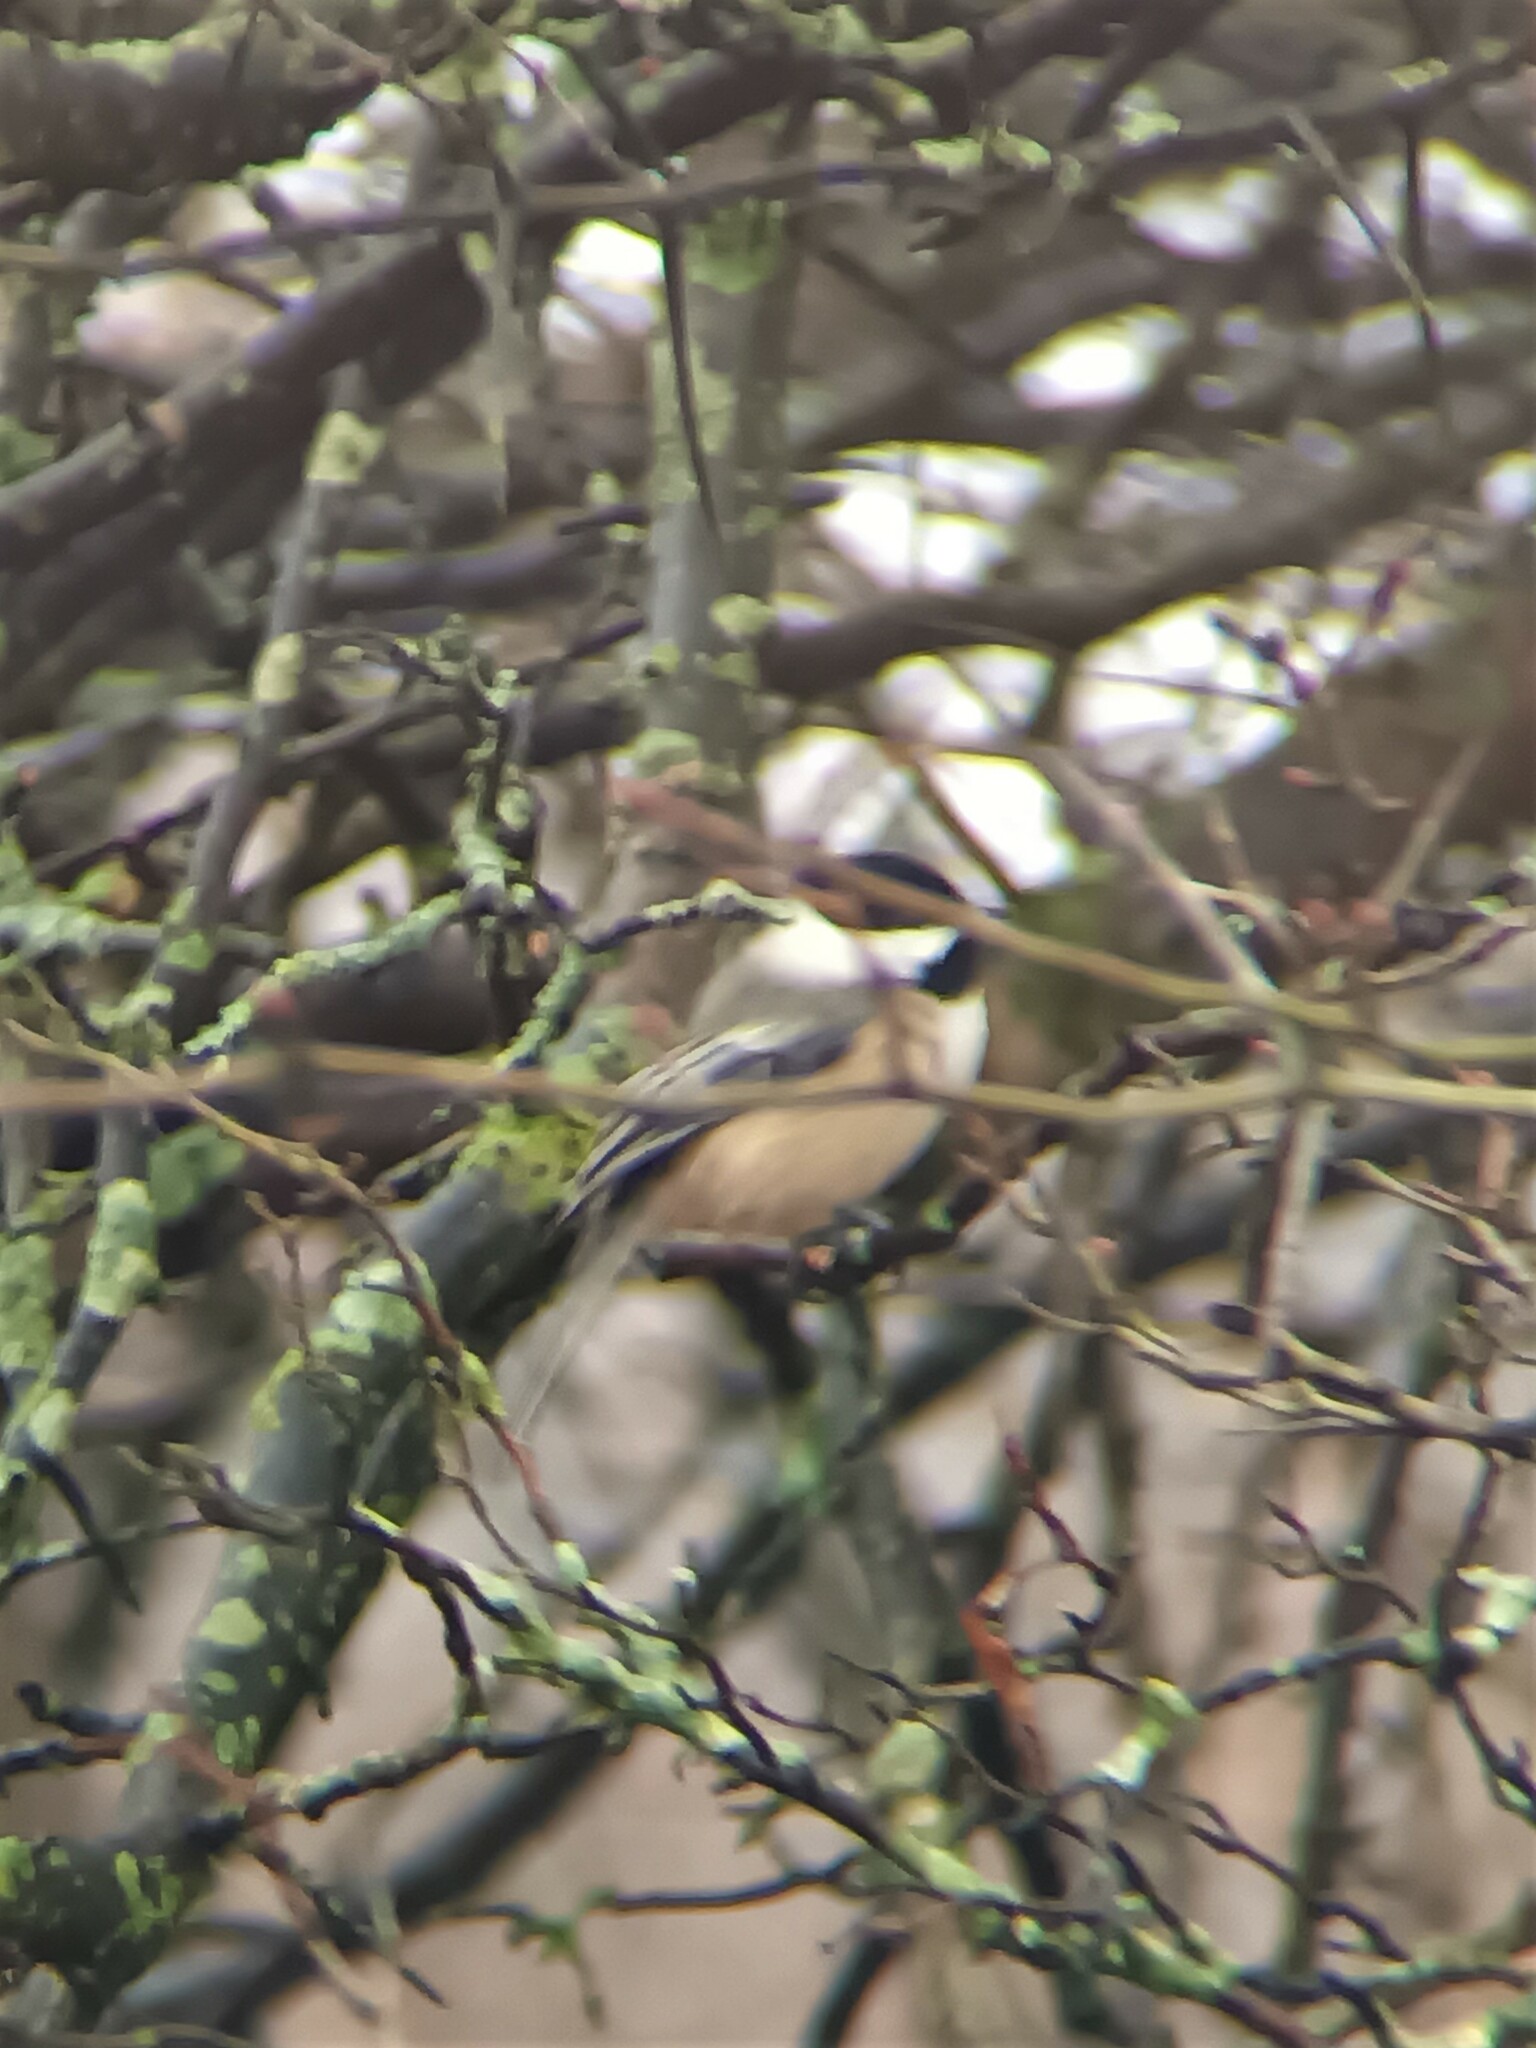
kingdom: Animalia
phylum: Chordata
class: Aves
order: Passeriformes
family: Paridae
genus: Poecile
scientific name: Poecile atricapillus
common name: Black-capped chickadee
